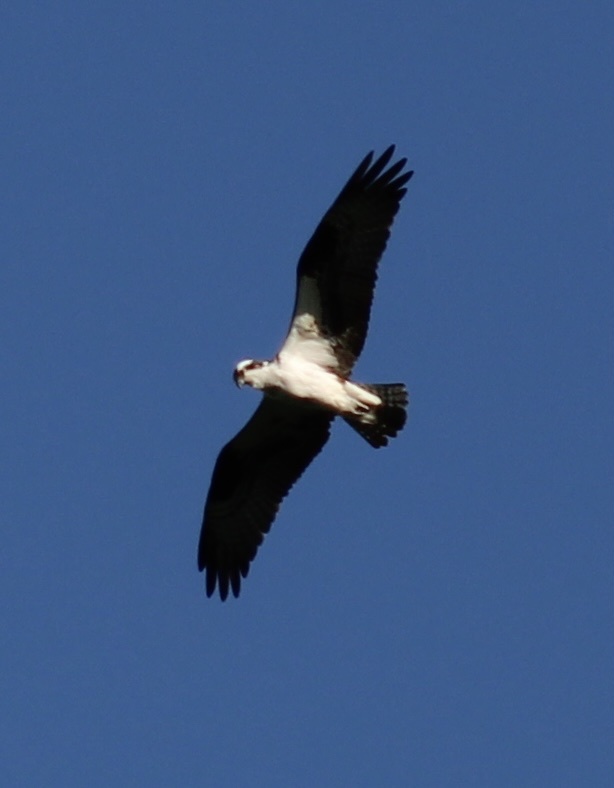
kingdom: Animalia
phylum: Chordata
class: Aves
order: Accipitriformes
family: Pandionidae
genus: Pandion
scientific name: Pandion haliaetus
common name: Osprey
